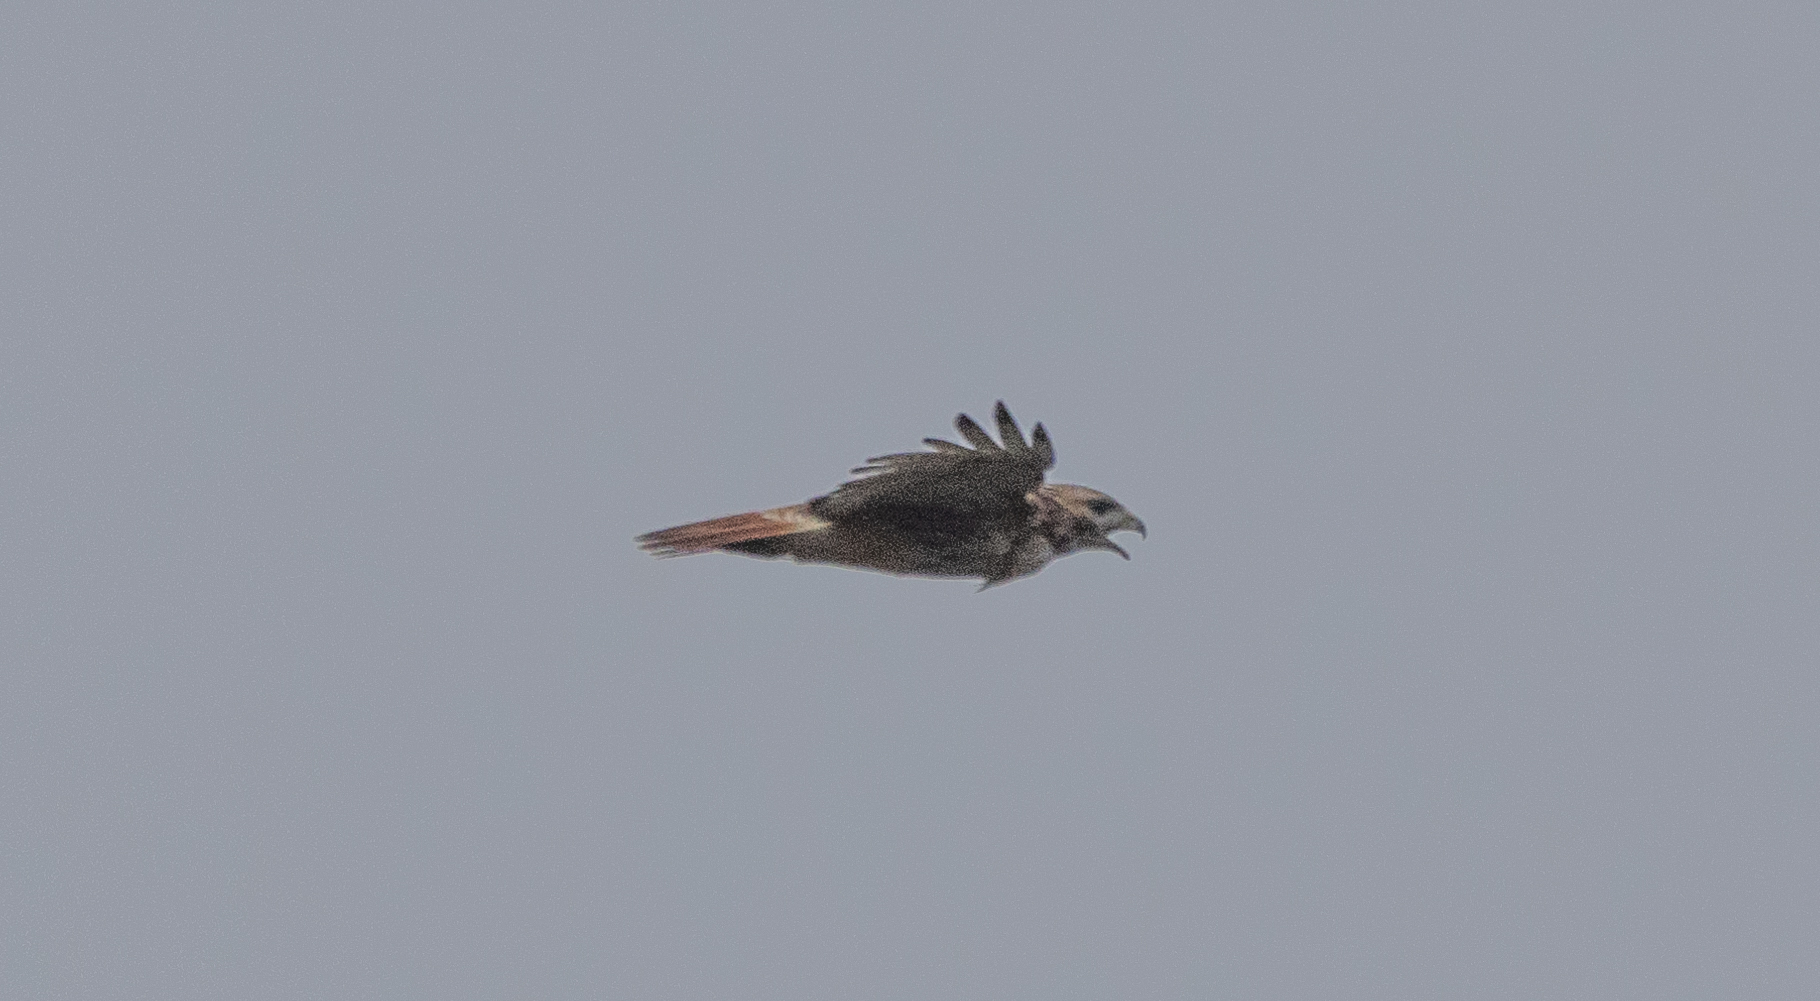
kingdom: Animalia
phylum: Chordata
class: Aves
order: Accipitriformes
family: Accipitridae
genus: Buteo
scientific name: Buteo jamaicensis
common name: Red-tailed hawk
